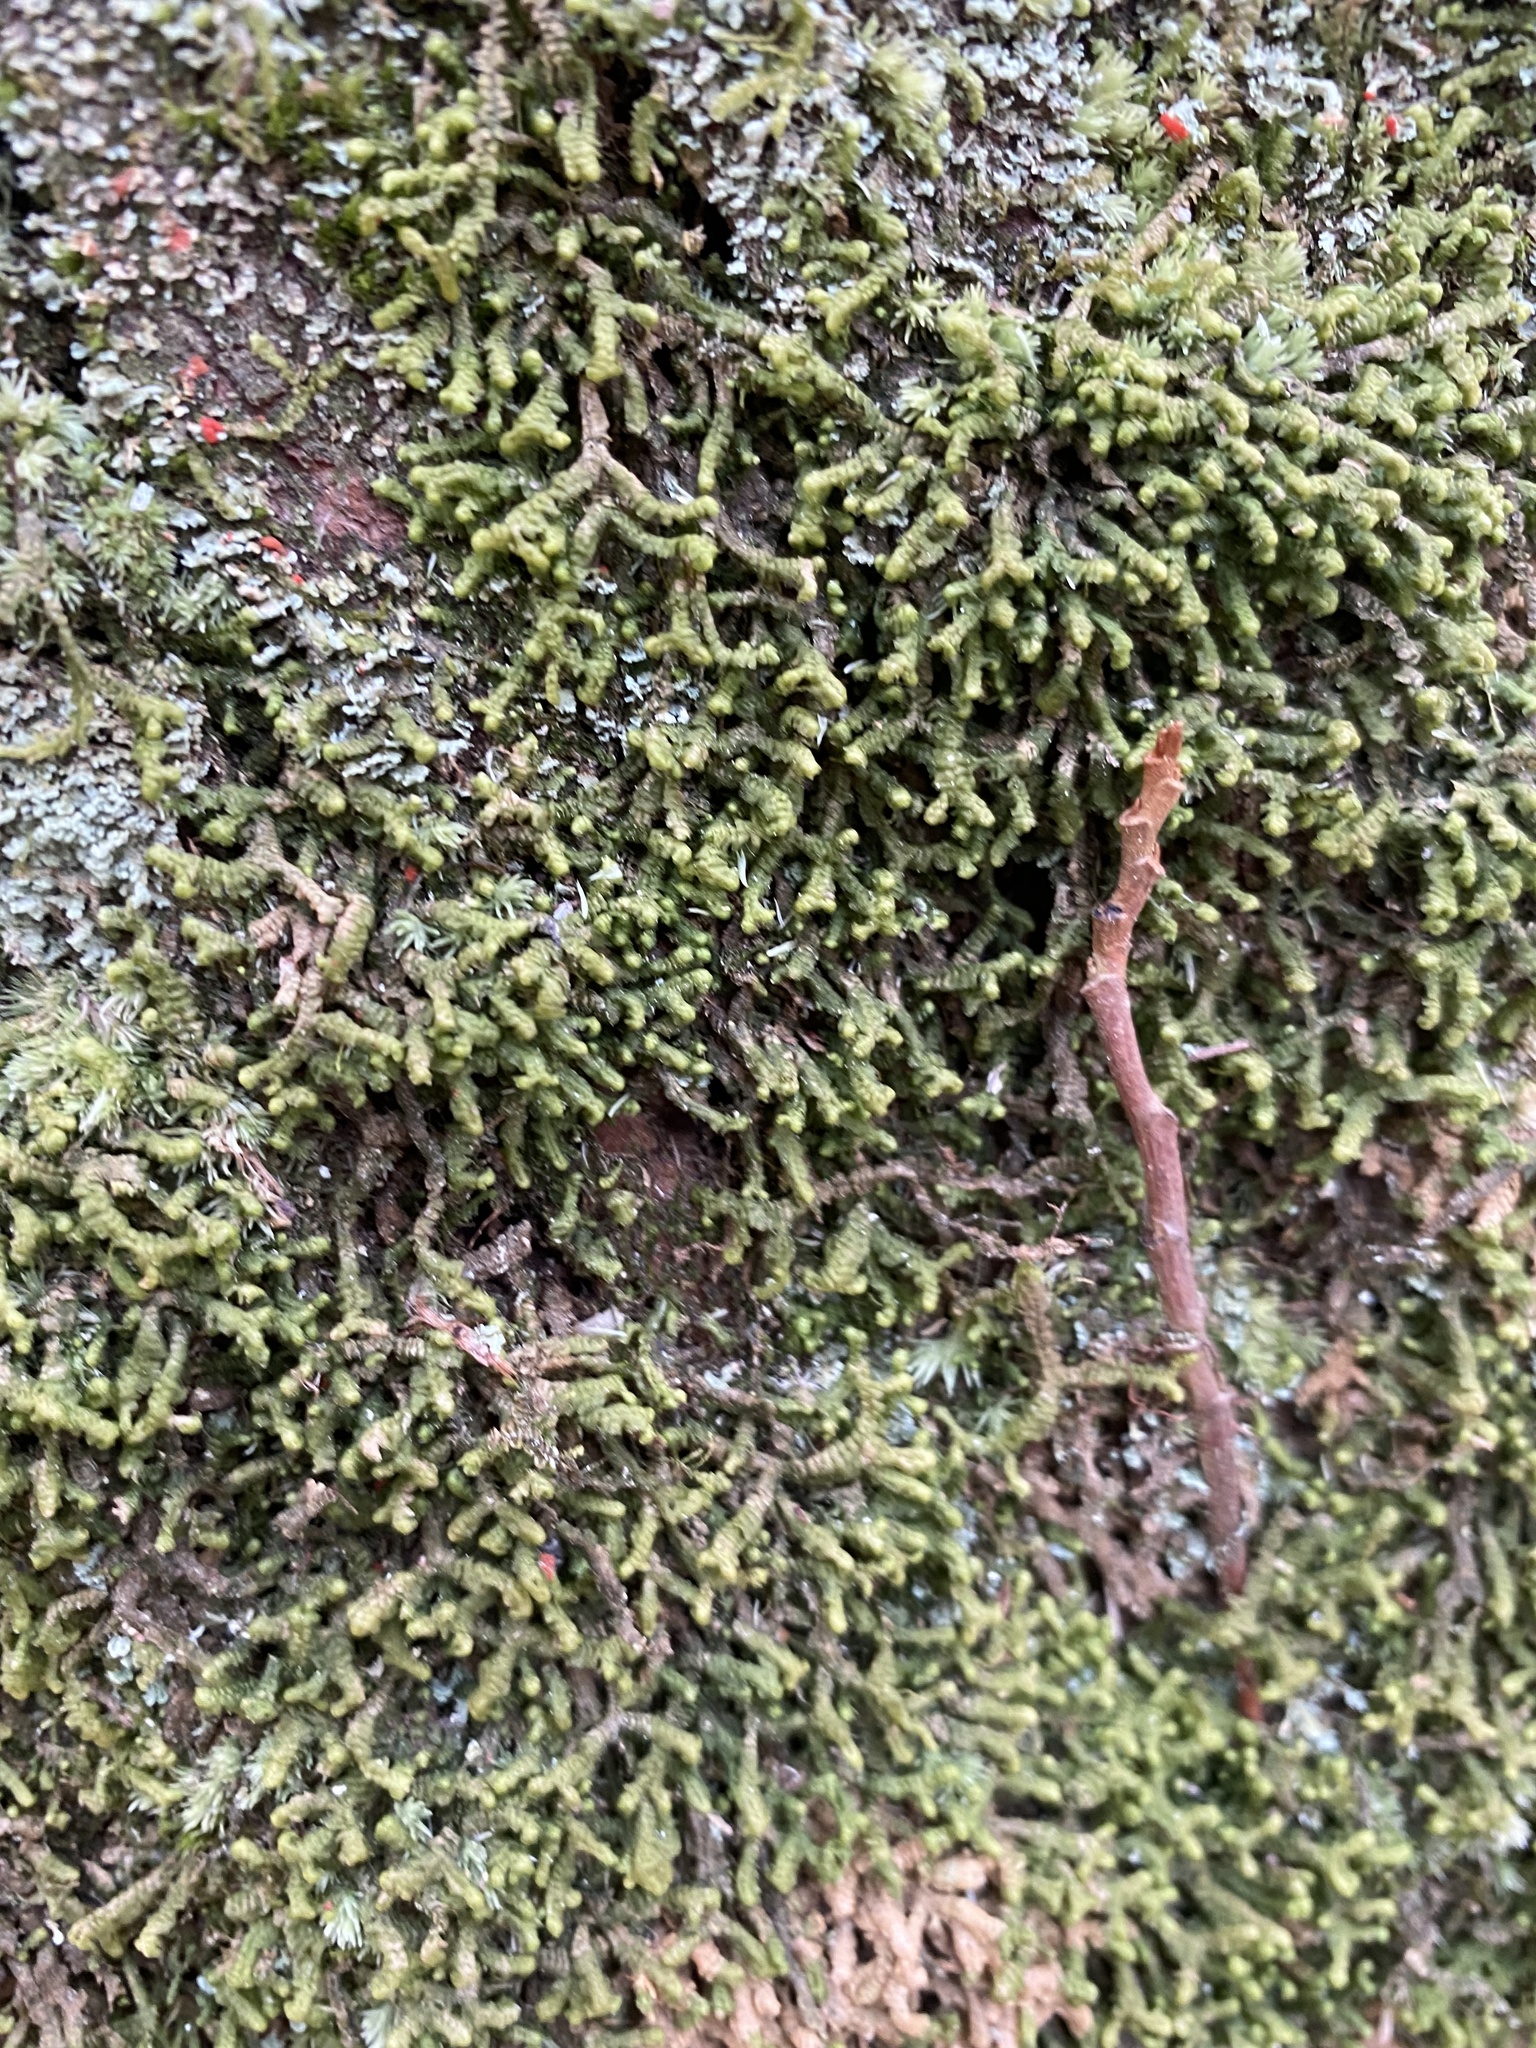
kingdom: Plantae
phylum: Marchantiophyta
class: Jungermanniopsida
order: Jungermanniales
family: Lepidoziaceae
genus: Bazzania
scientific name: Bazzania trilobata
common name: Three-lobed whipwort
